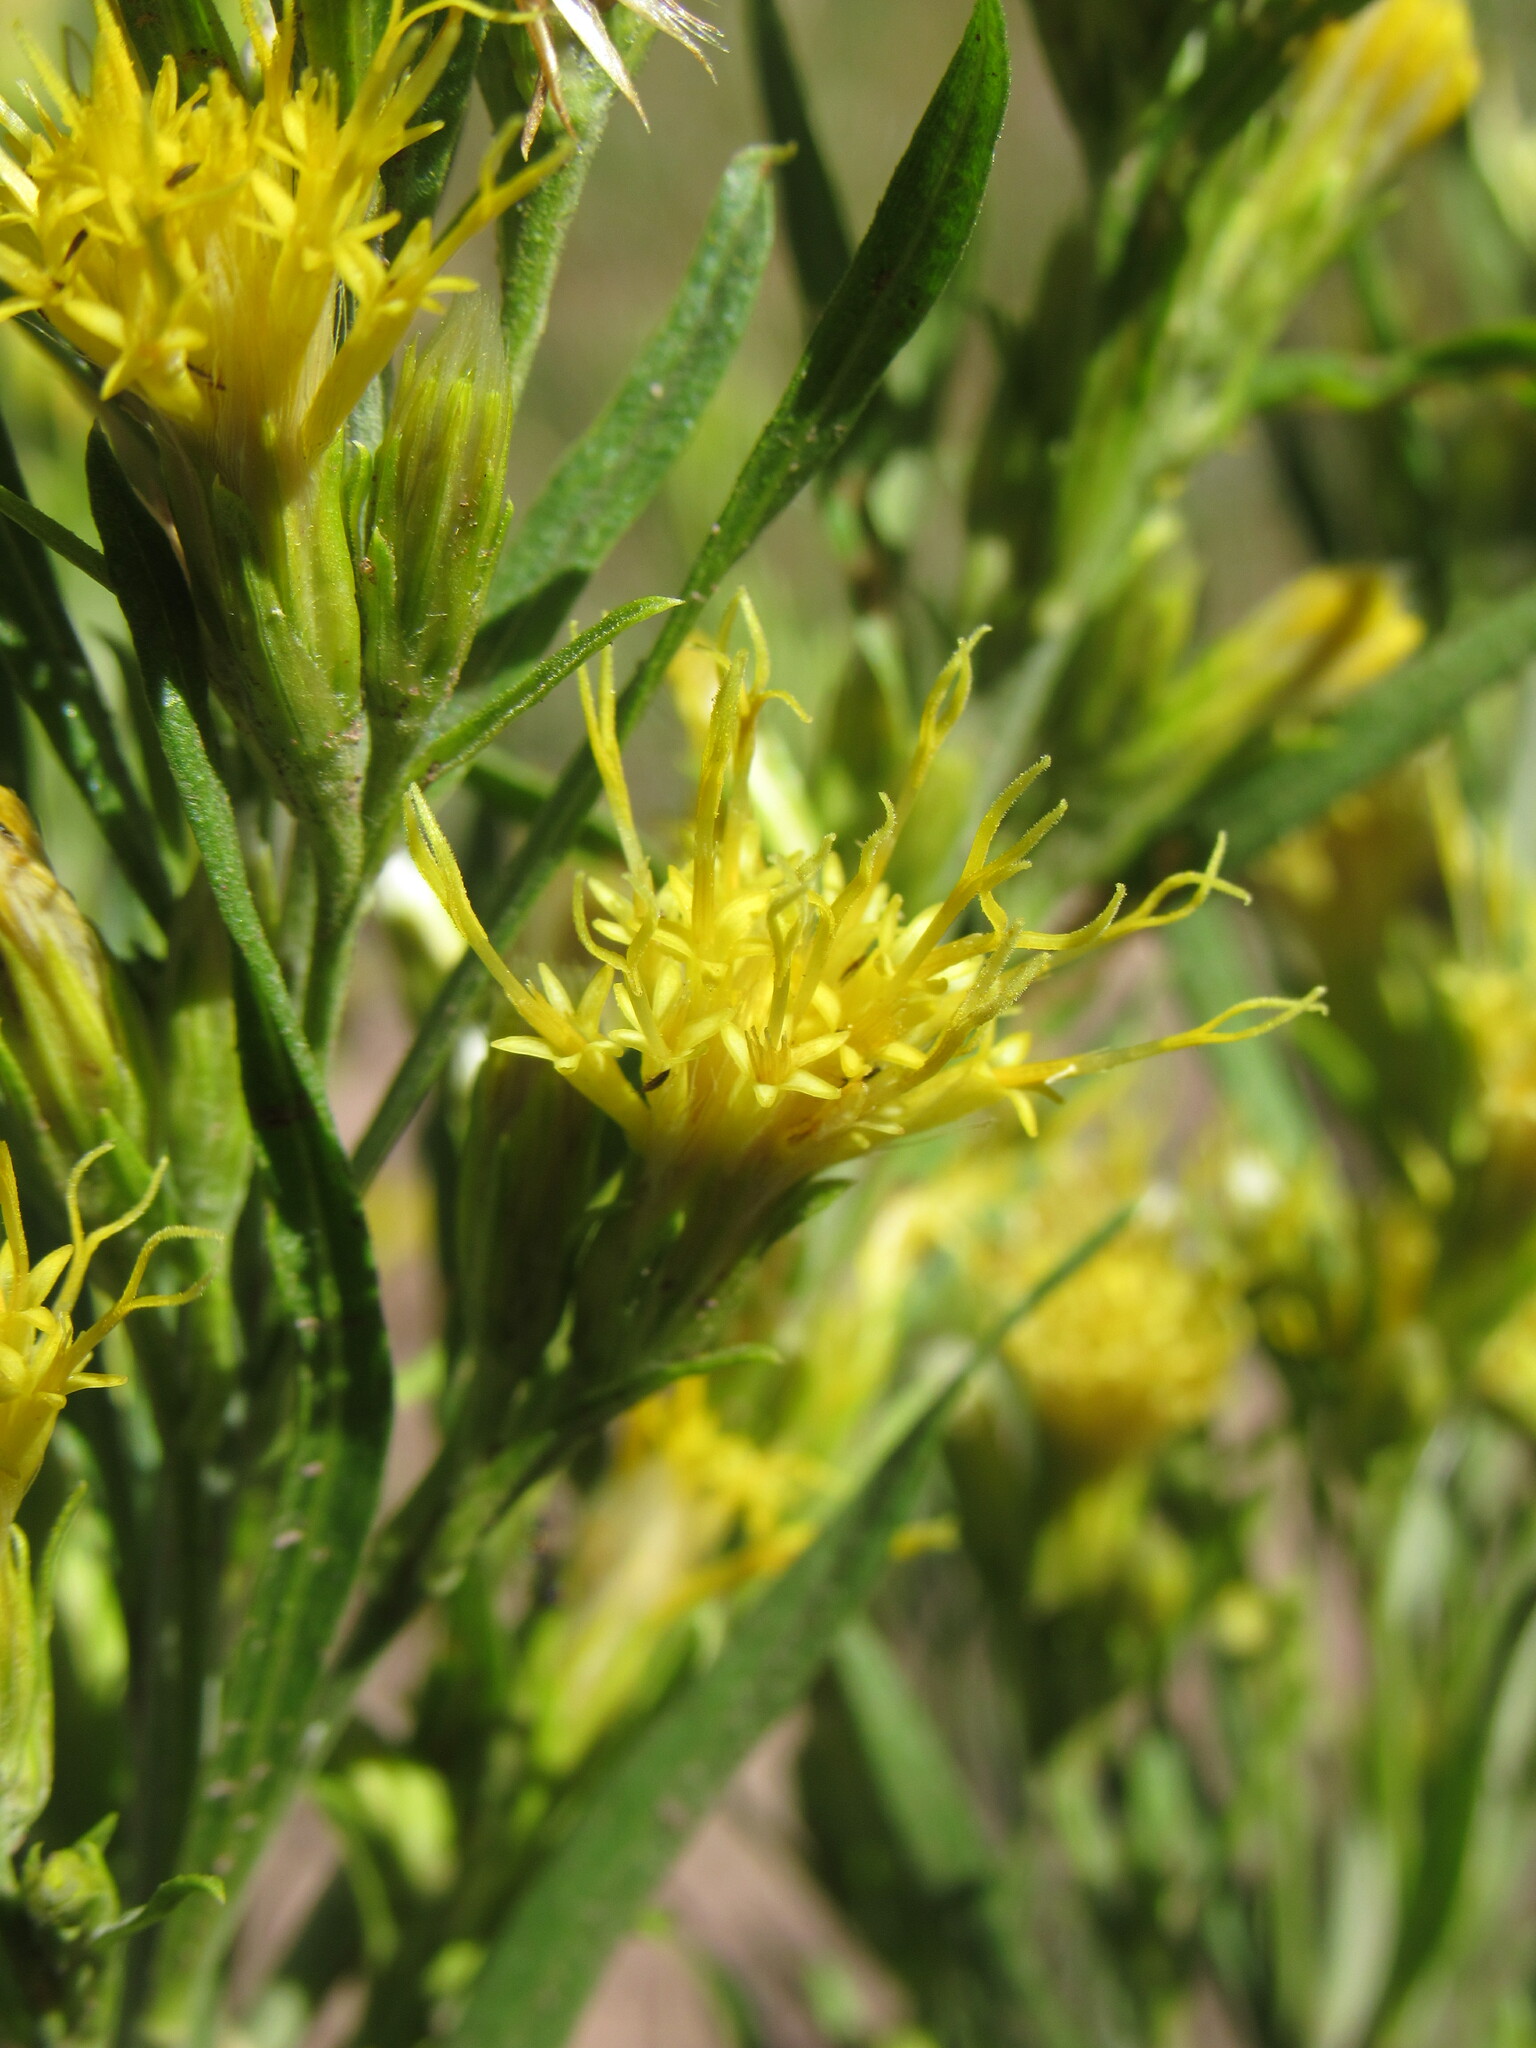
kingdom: Plantae
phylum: Tracheophyta
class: Magnoliopsida
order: Asterales
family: Asteraceae
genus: Ericameria
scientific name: Ericameria parryi
